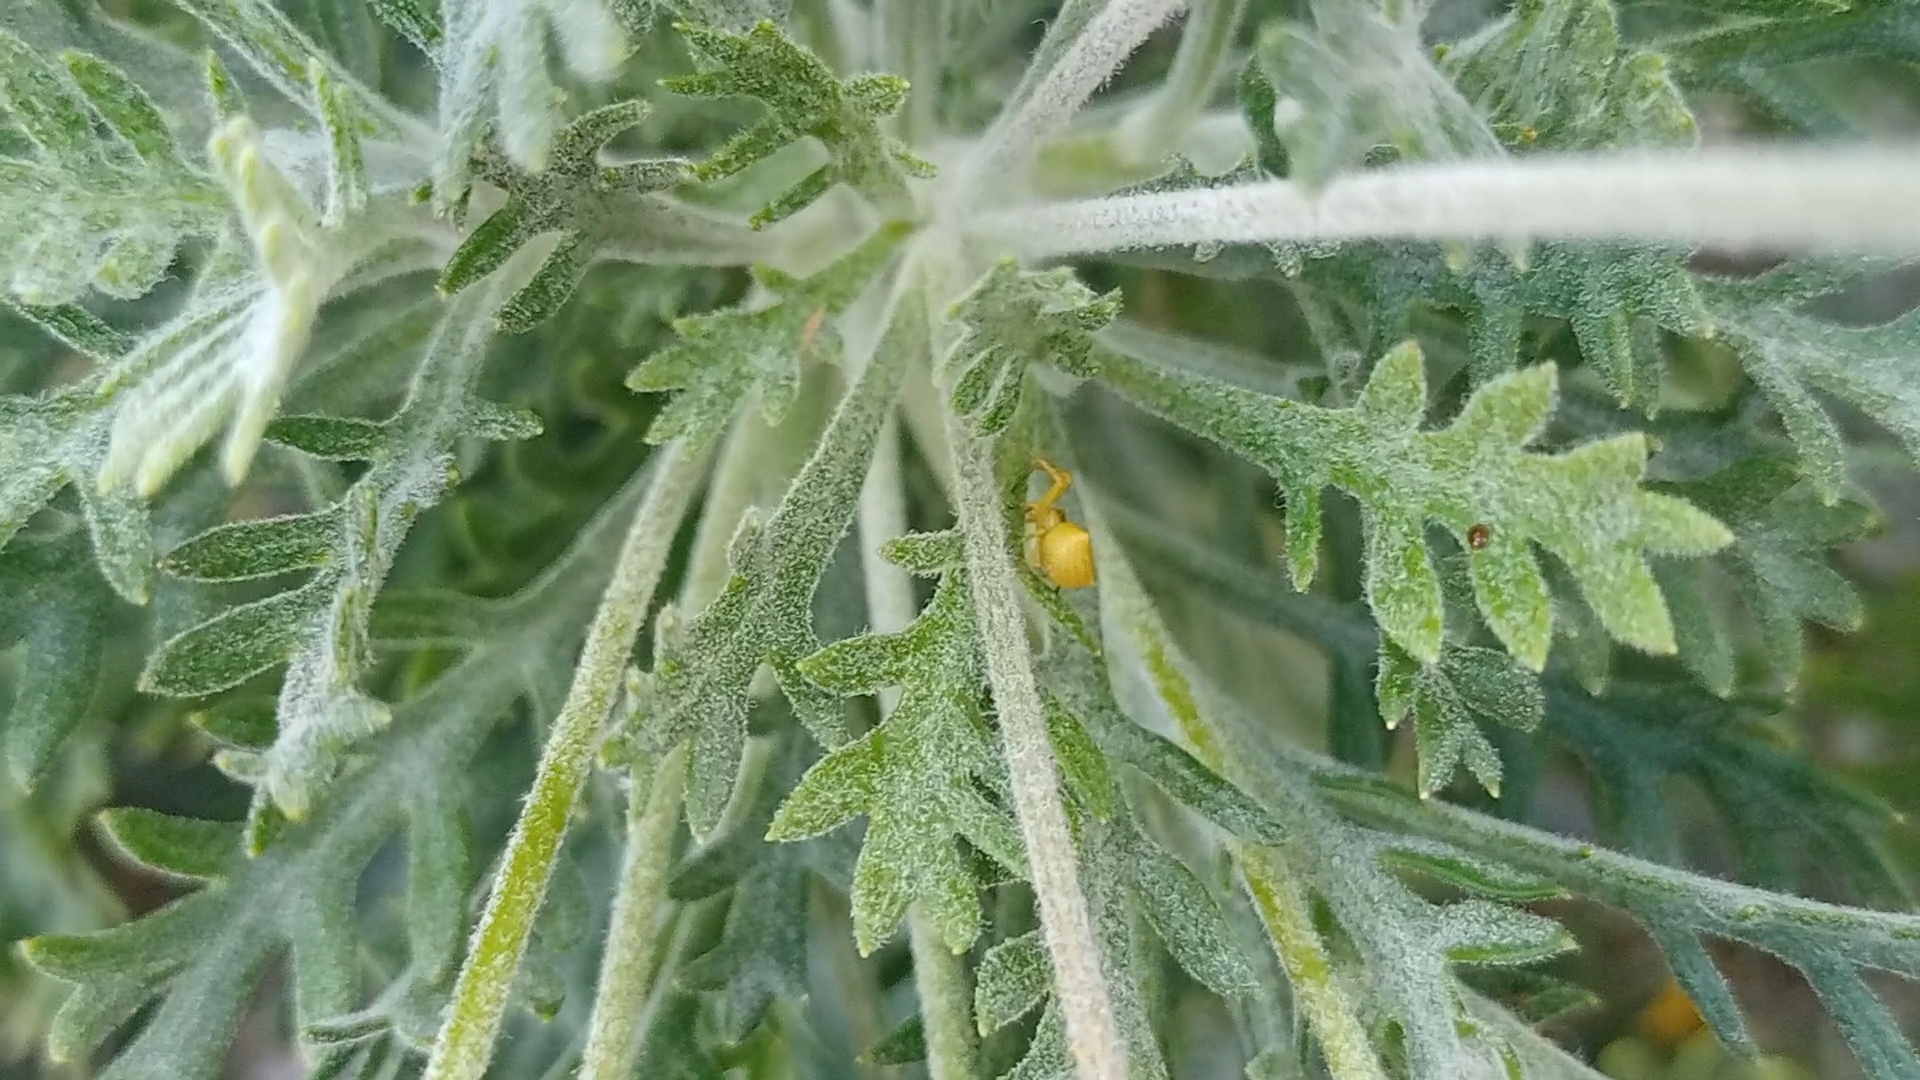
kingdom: Animalia
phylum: Arthropoda
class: Arachnida
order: Araneae
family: Thomisidae
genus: Thomisus
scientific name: Thomisus onustus
